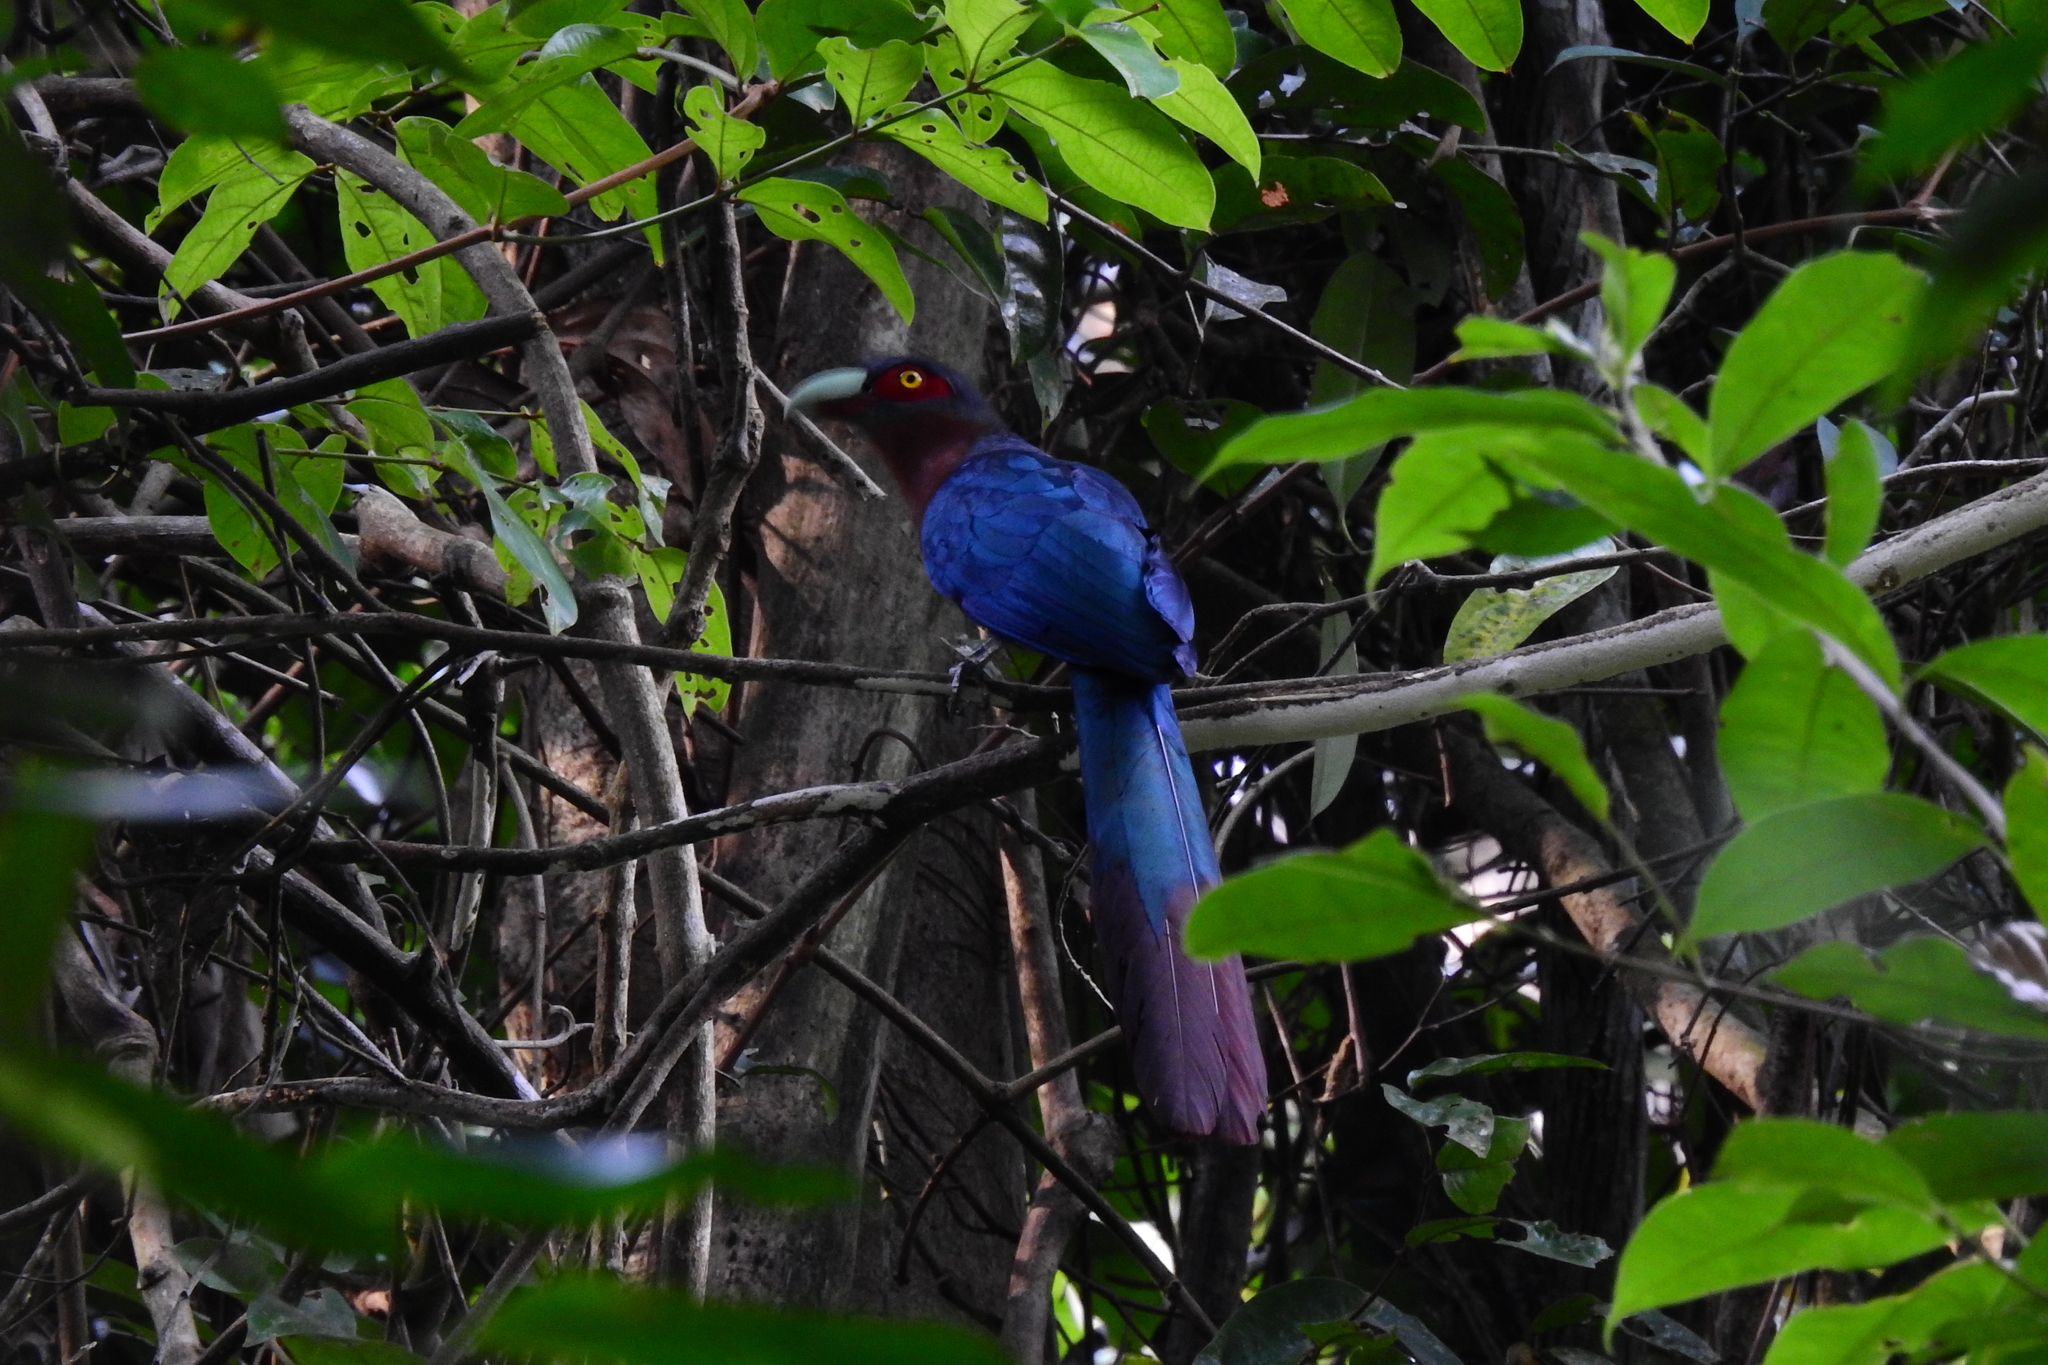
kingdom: Animalia
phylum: Chordata
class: Aves
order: Cuculiformes
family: Cuculidae
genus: Zanclostomus
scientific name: Zanclostomus curvirostris
